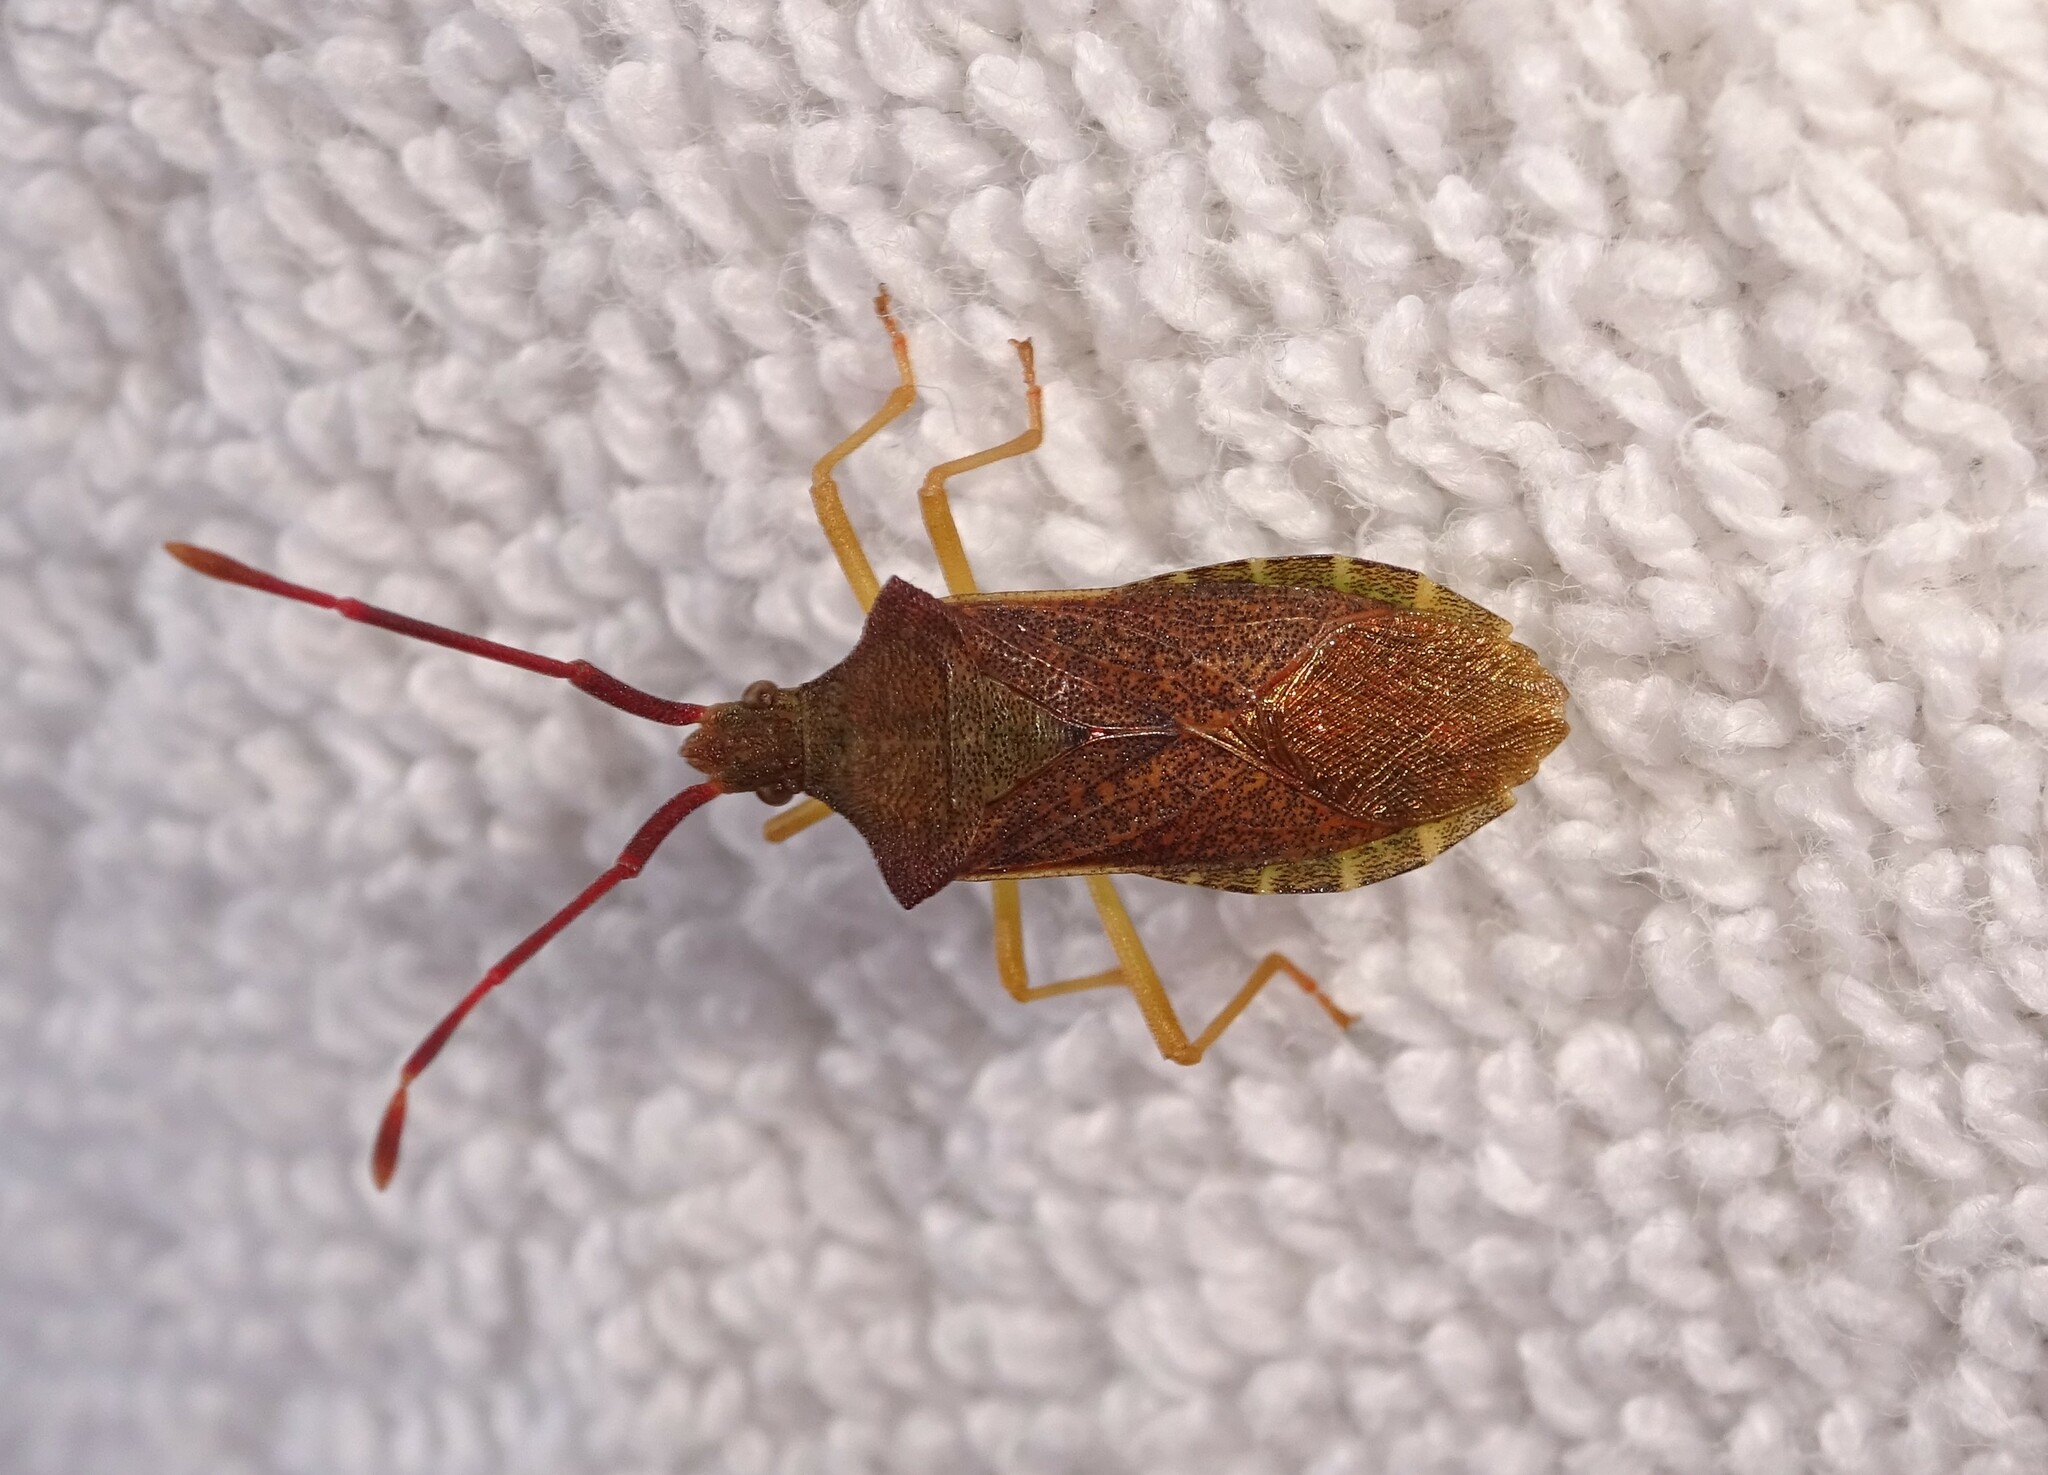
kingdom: Animalia
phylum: Arthropoda
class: Insecta
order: Hemiptera
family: Coreidae
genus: Gonocerus
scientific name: Gonocerus acuteangulatus
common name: Box bug
